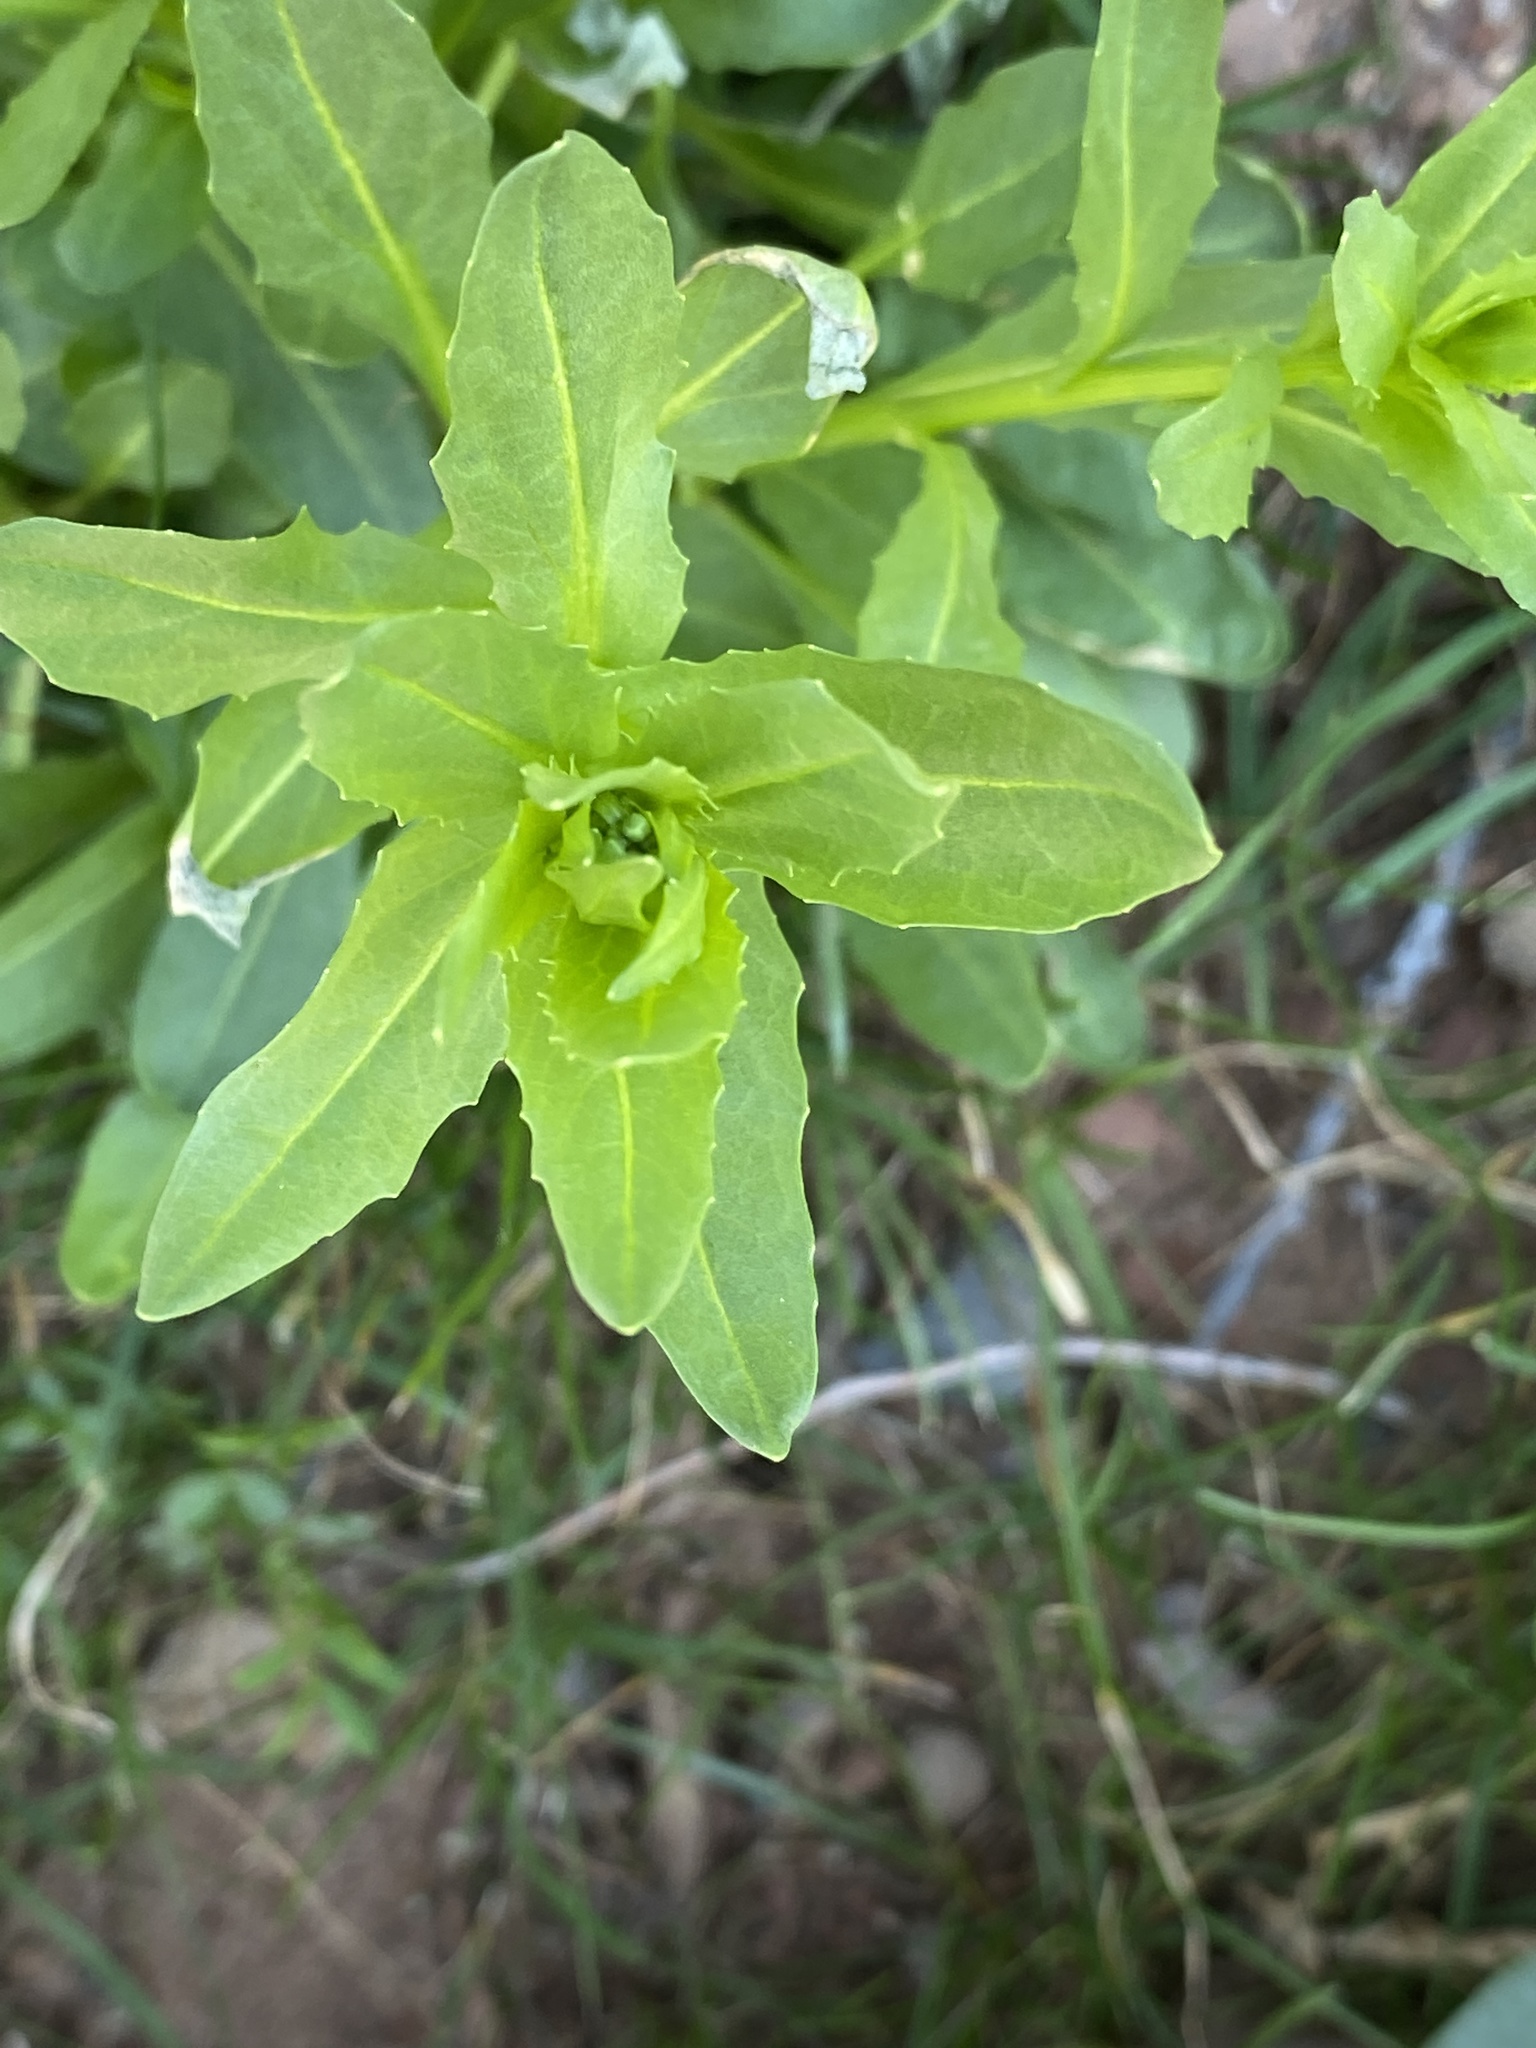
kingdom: Plantae
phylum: Tracheophyta
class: Magnoliopsida
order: Brassicales
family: Brassicaceae
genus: Thlaspi
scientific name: Thlaspi arvense
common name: Field pennycress
